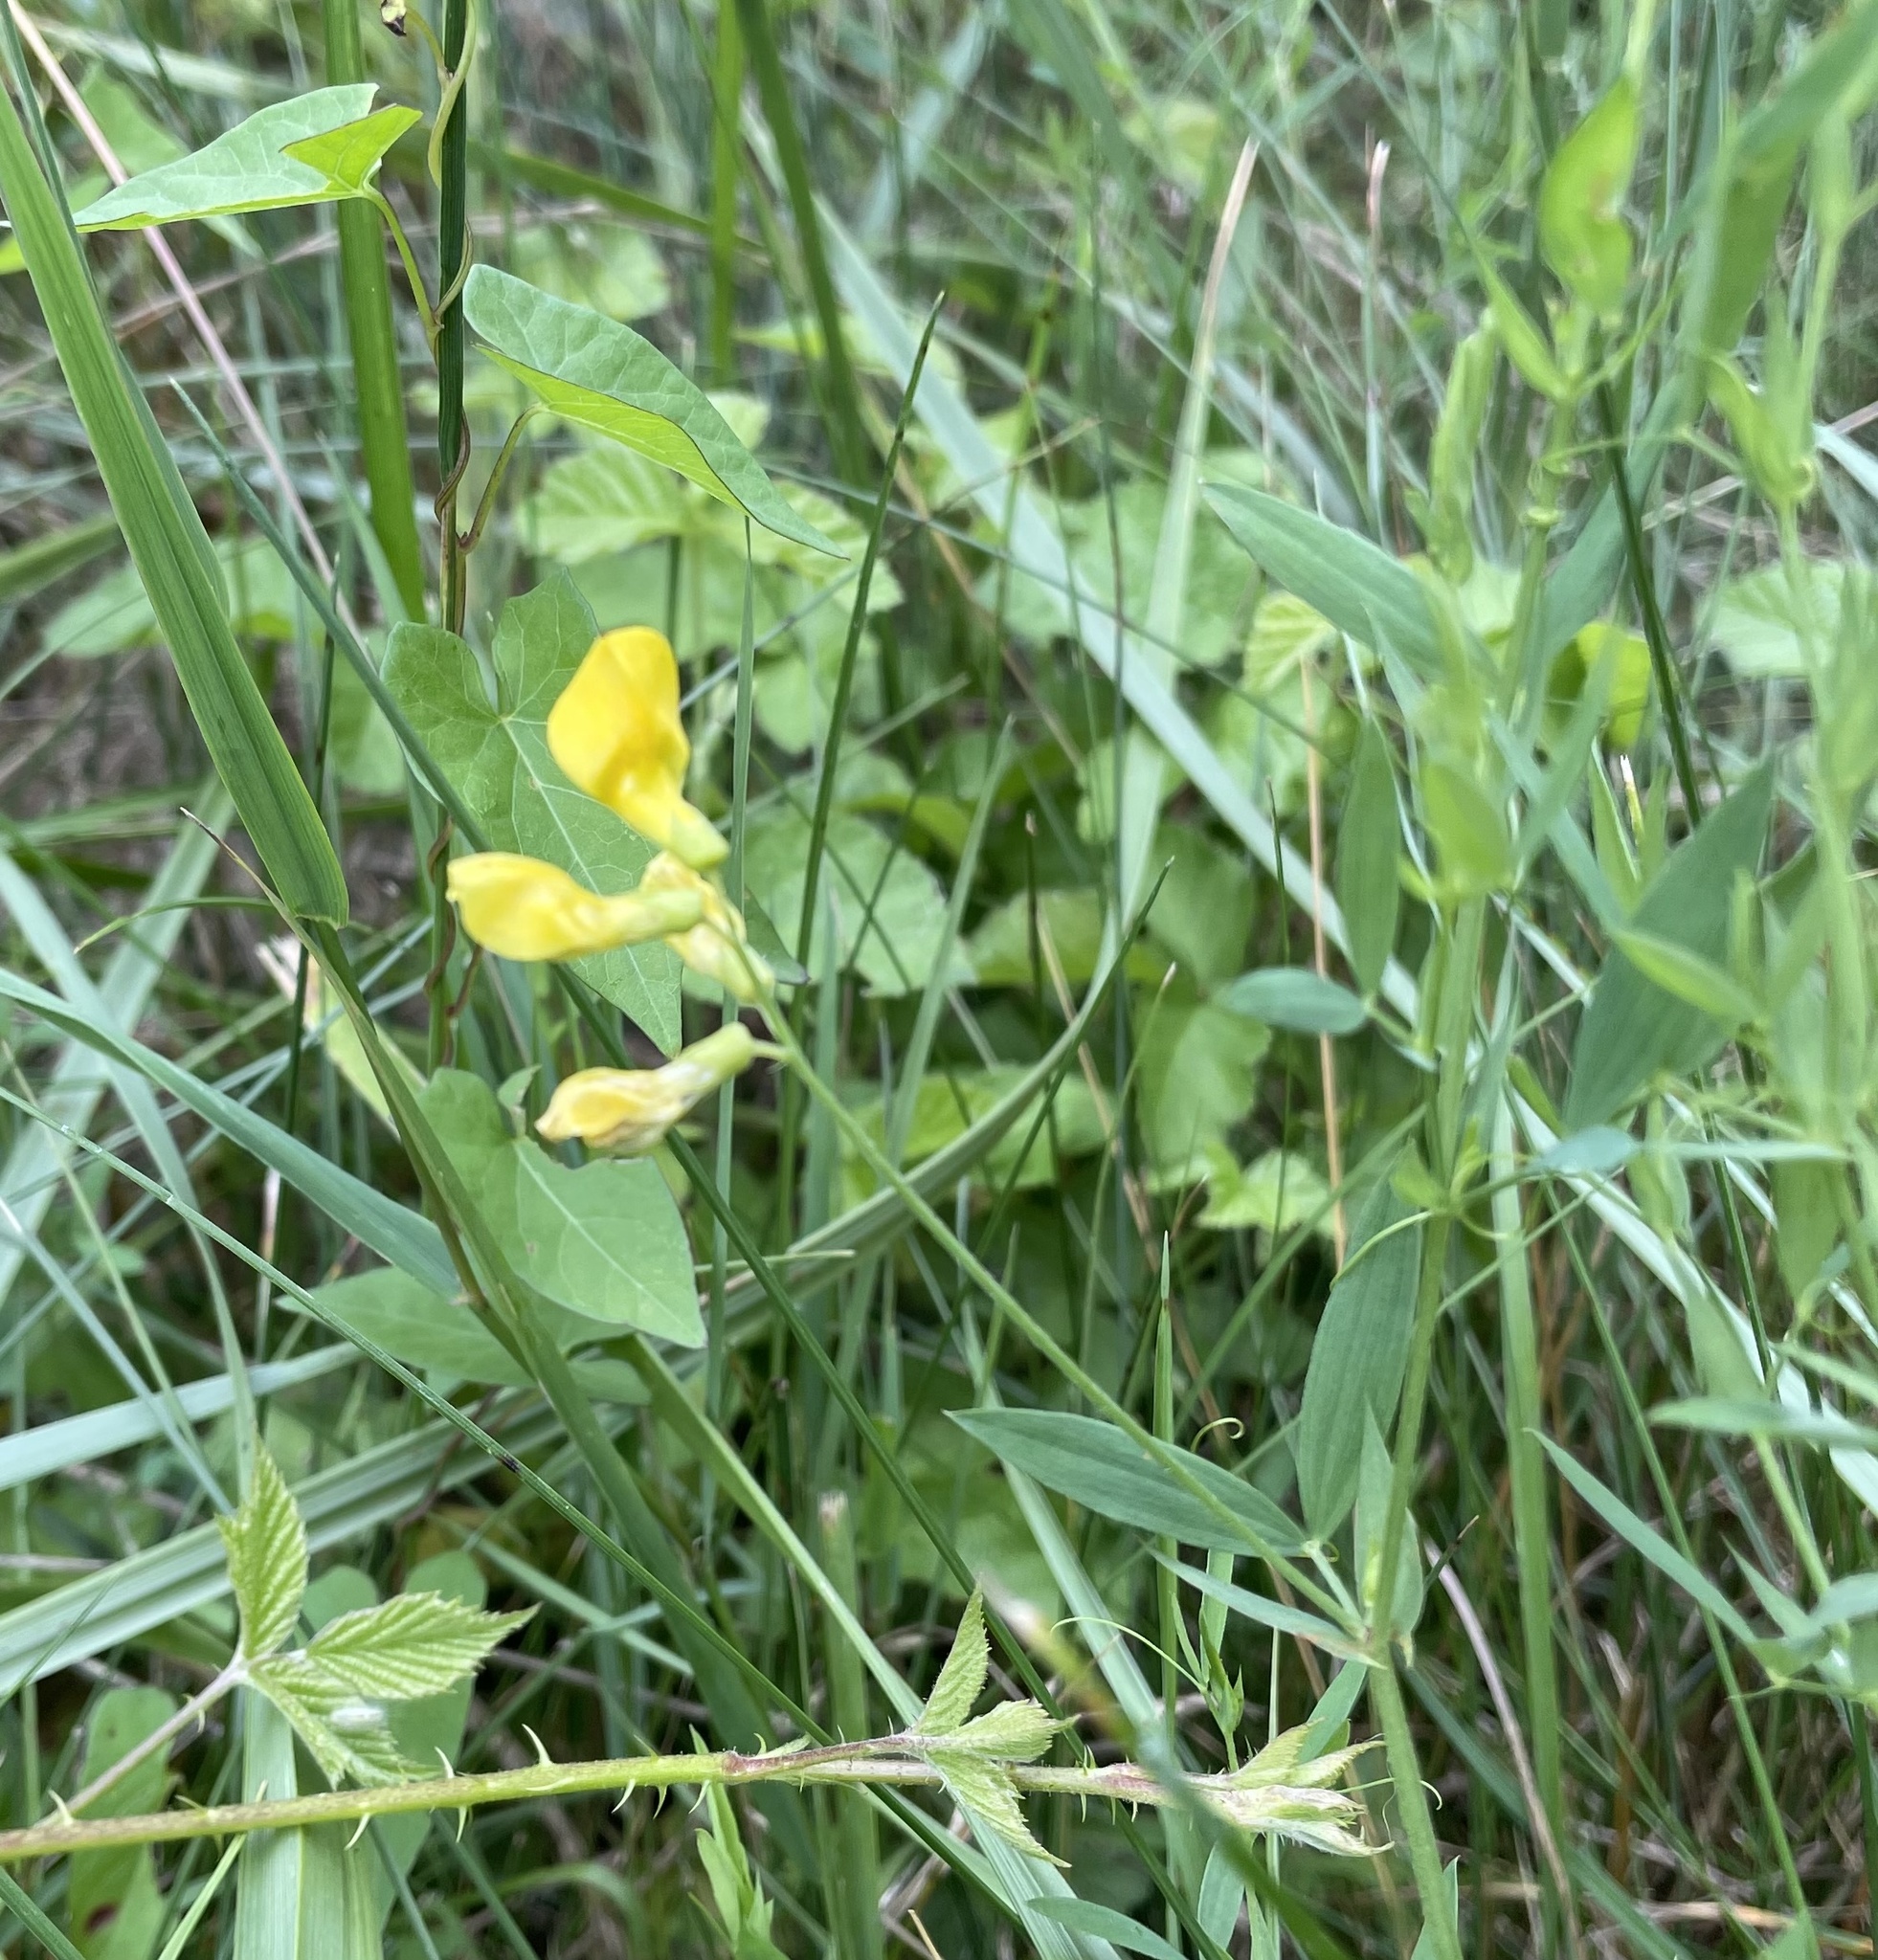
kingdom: Plantae
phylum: Tracheophyta
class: Magnoliopsida
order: Fabales
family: Fabaceae
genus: Lathyrus
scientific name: Lathyrus pratensis
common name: Meadow vetchling
